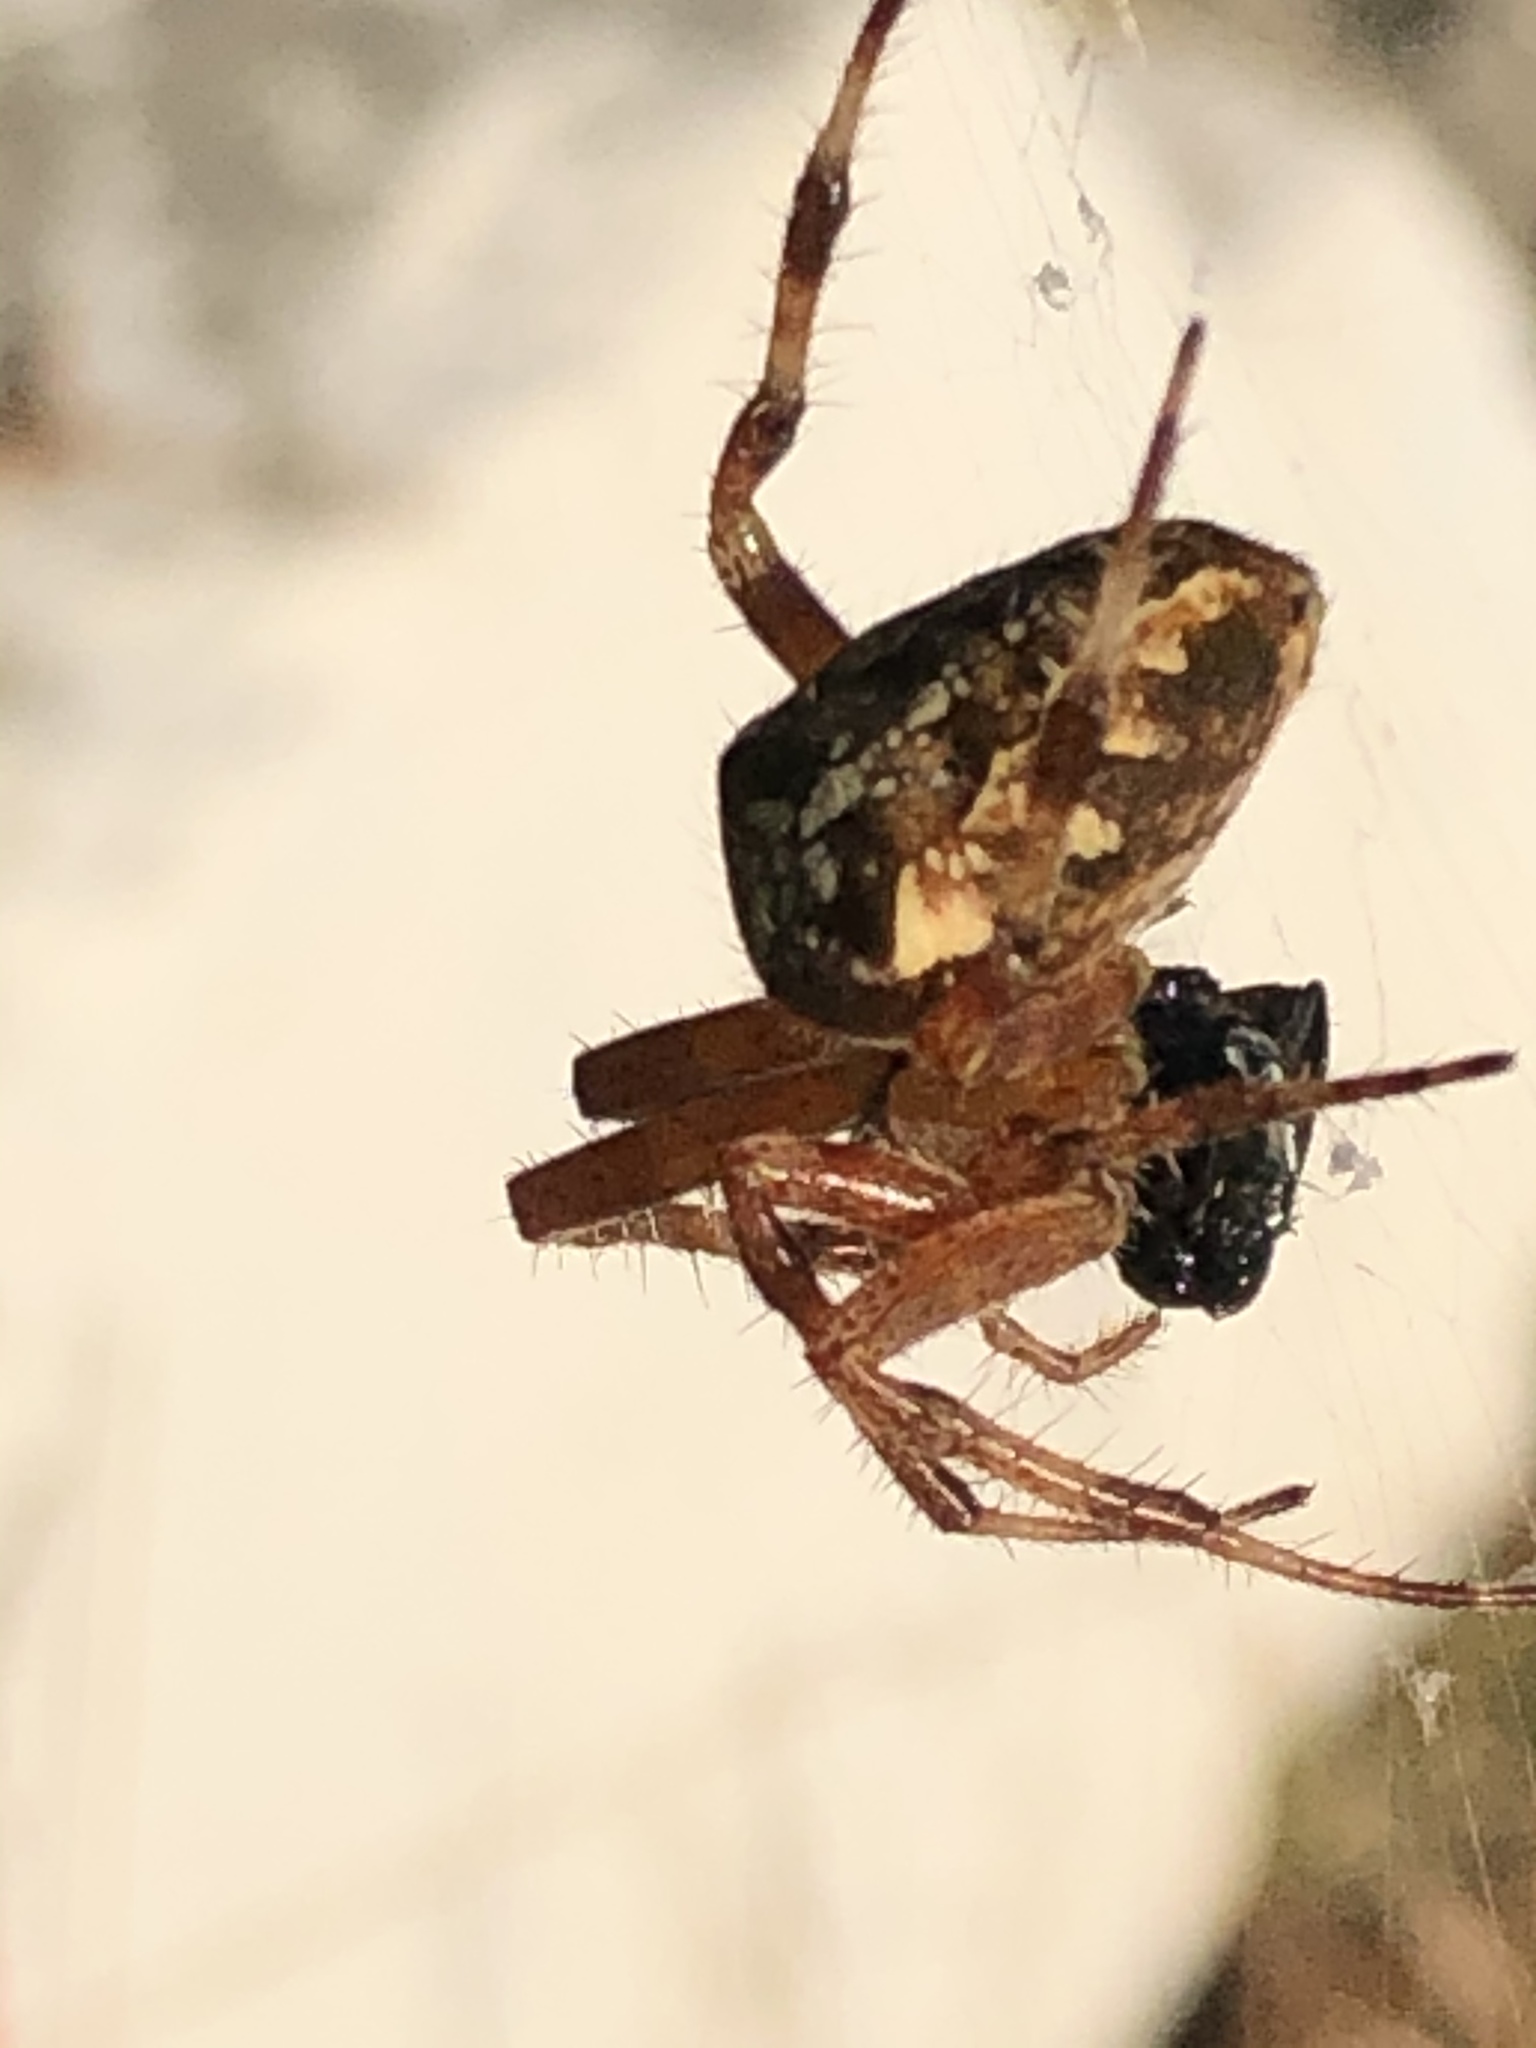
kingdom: Animalia
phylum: Arthropoda
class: Arachnida
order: Araneae
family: Araneidae
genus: Araneus
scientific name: Araneus diadematus
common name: Cross orbweaver
